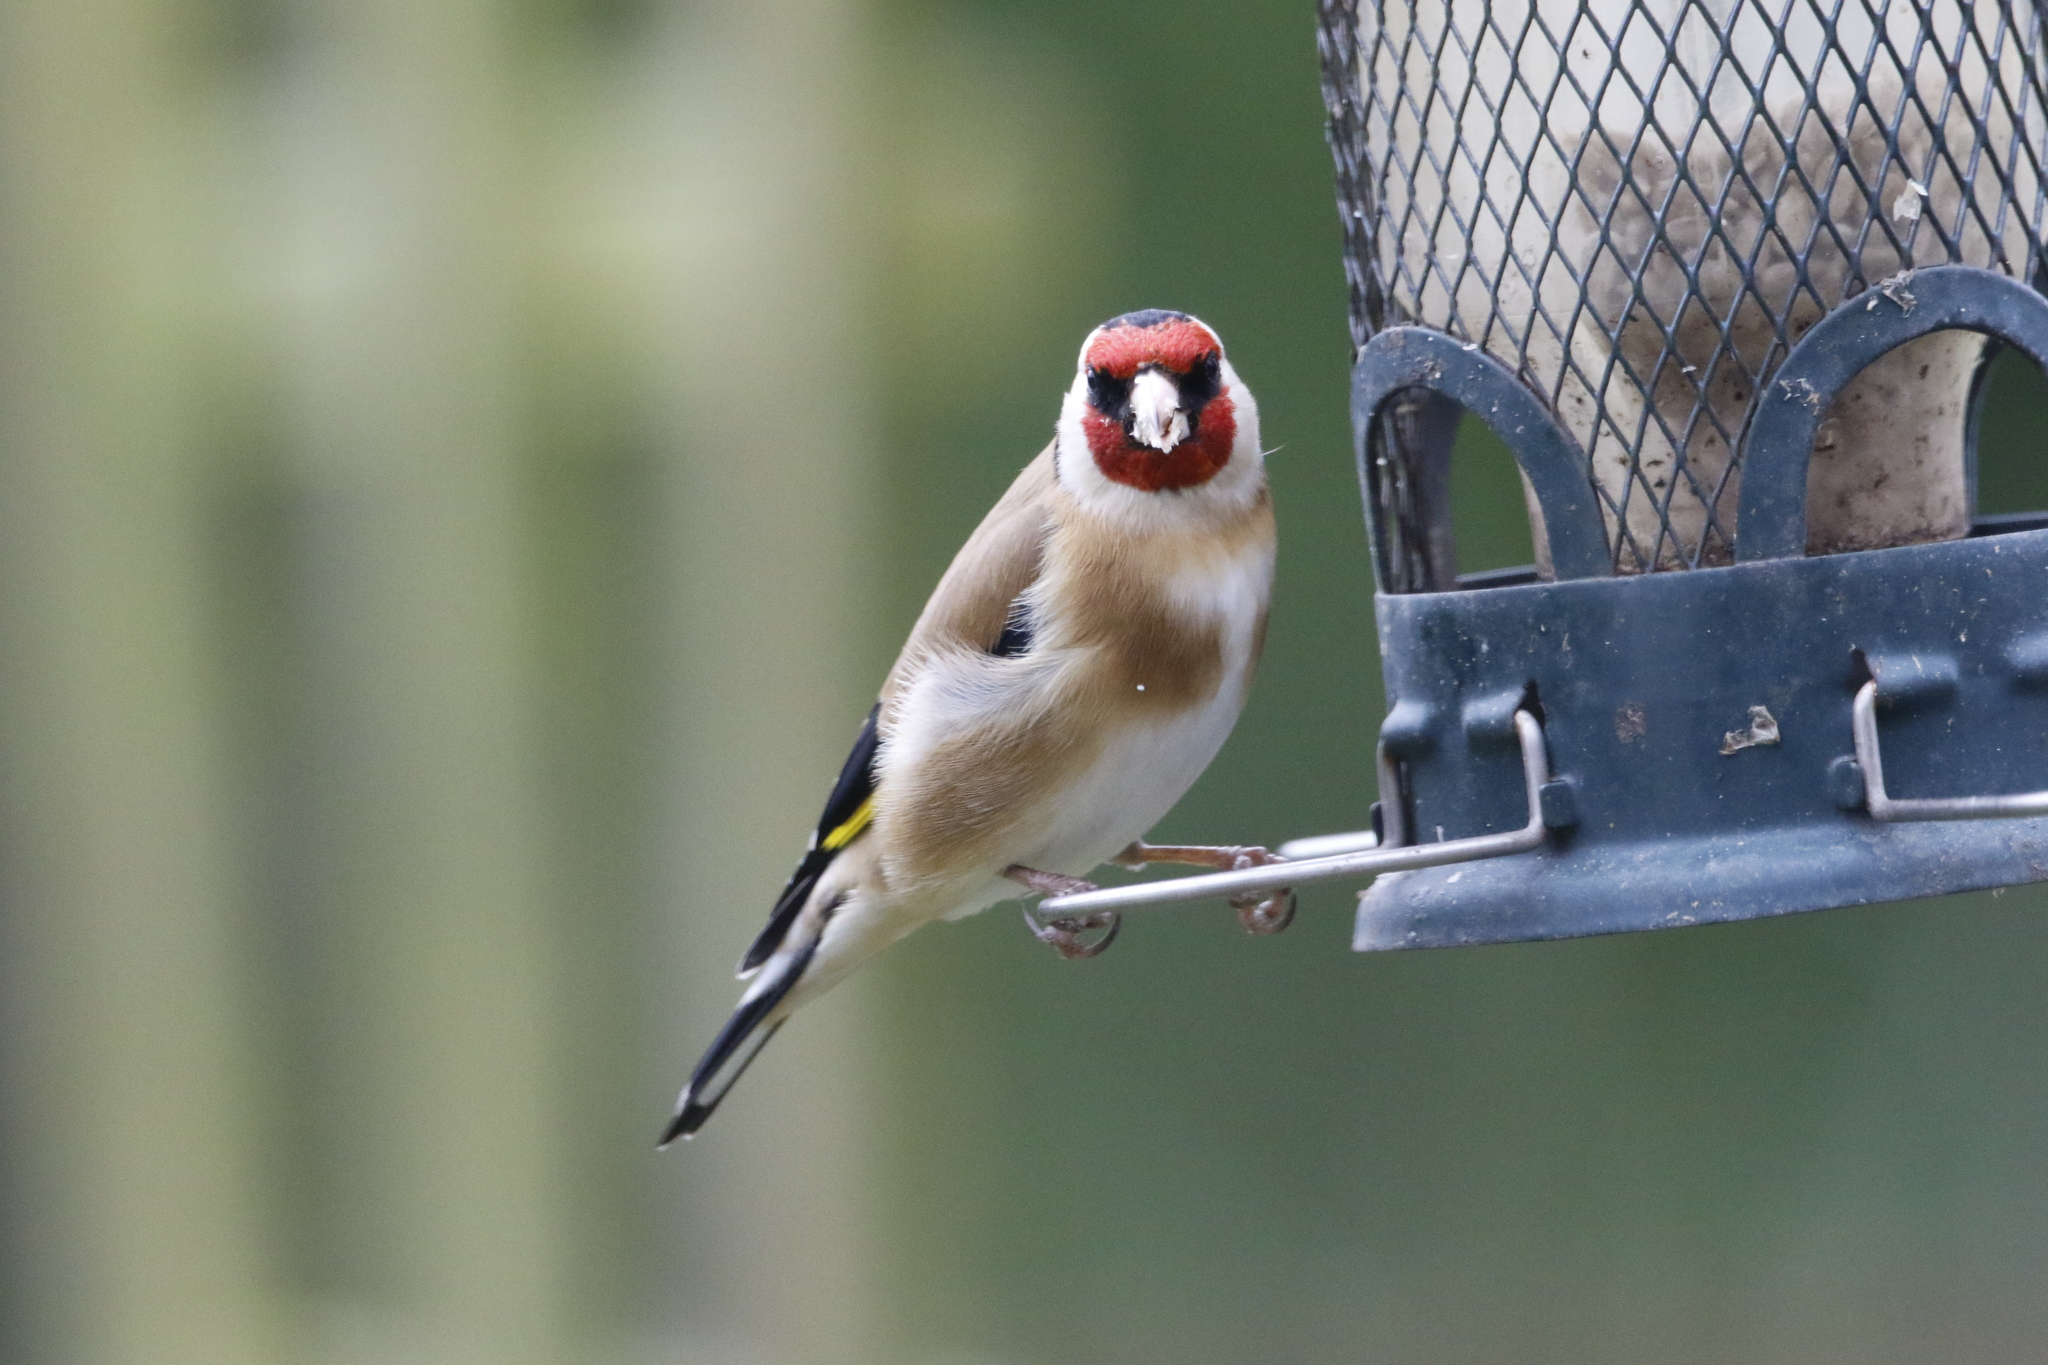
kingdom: Animalia
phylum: Chordata
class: Aves
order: Passeriformes
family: Fringillidae
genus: Carduelis
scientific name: Carduelis carduelis
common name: European goldfinch
